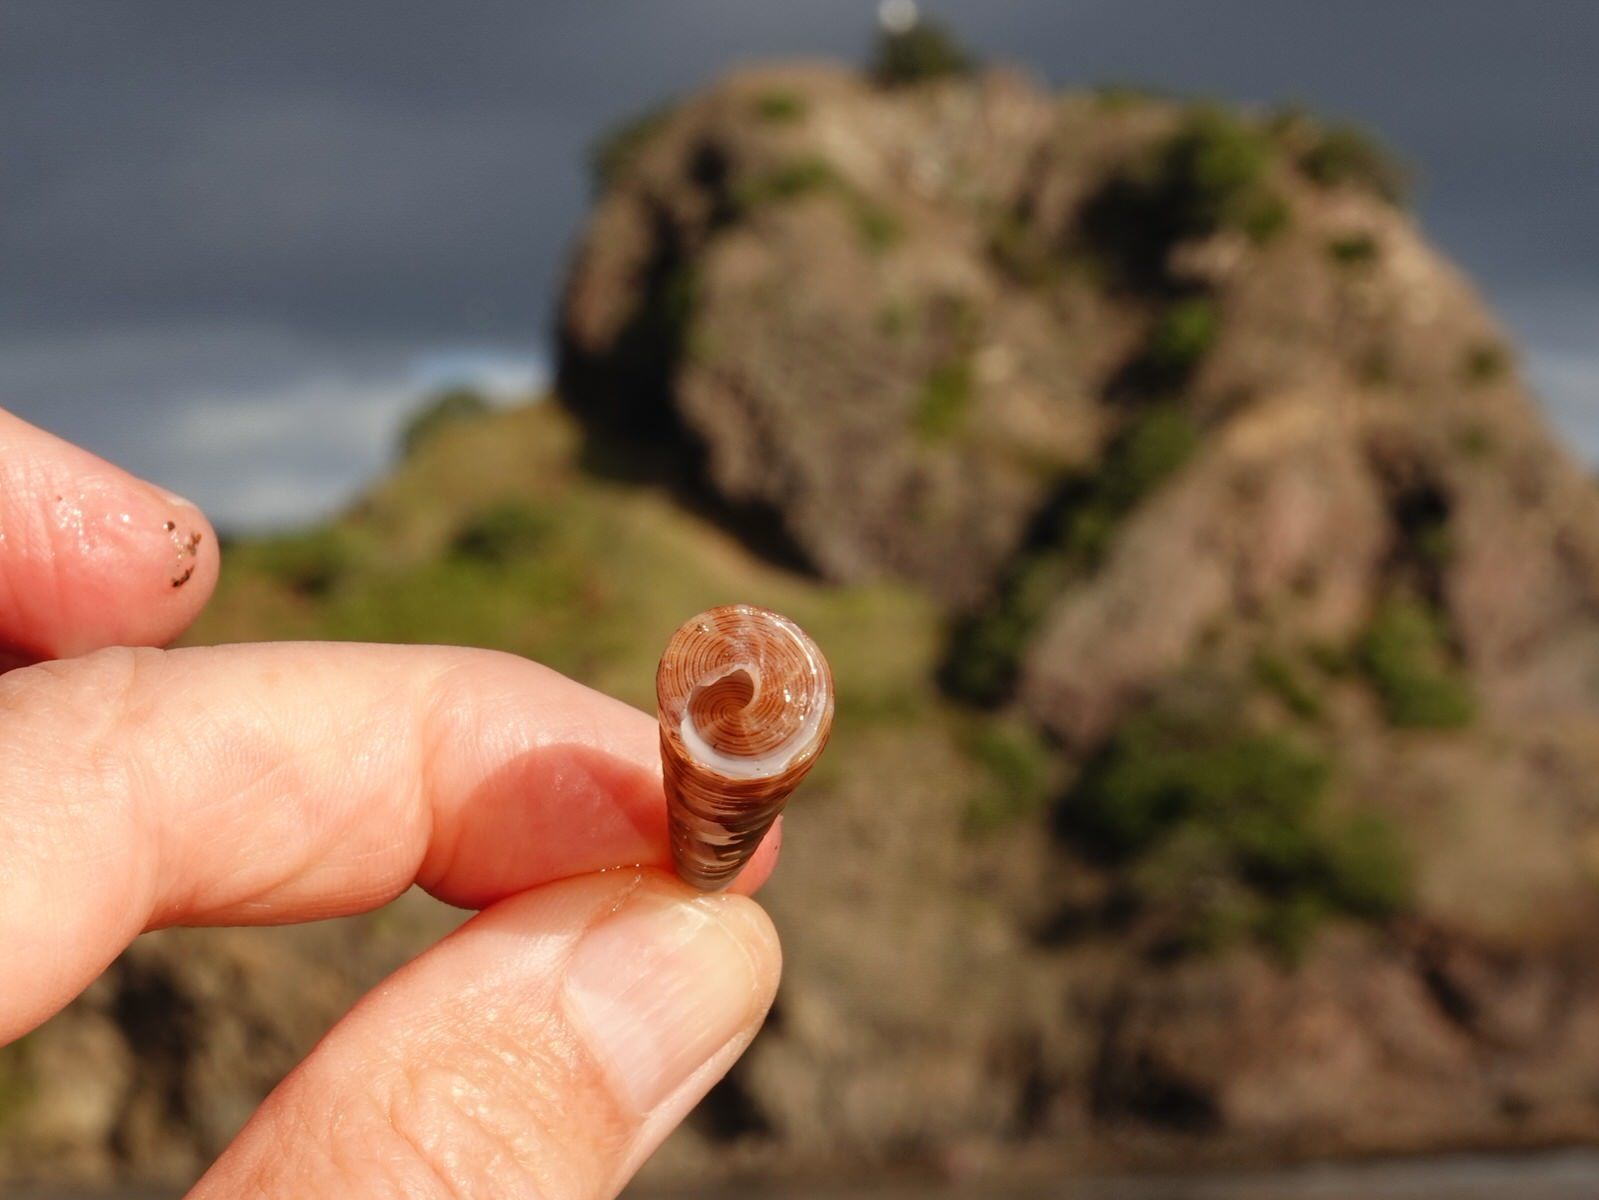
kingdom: Animalia
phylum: Mollusca
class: Gastropoda
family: Turritellidae
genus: Maoricolpus
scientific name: Maoricolpus roseus
